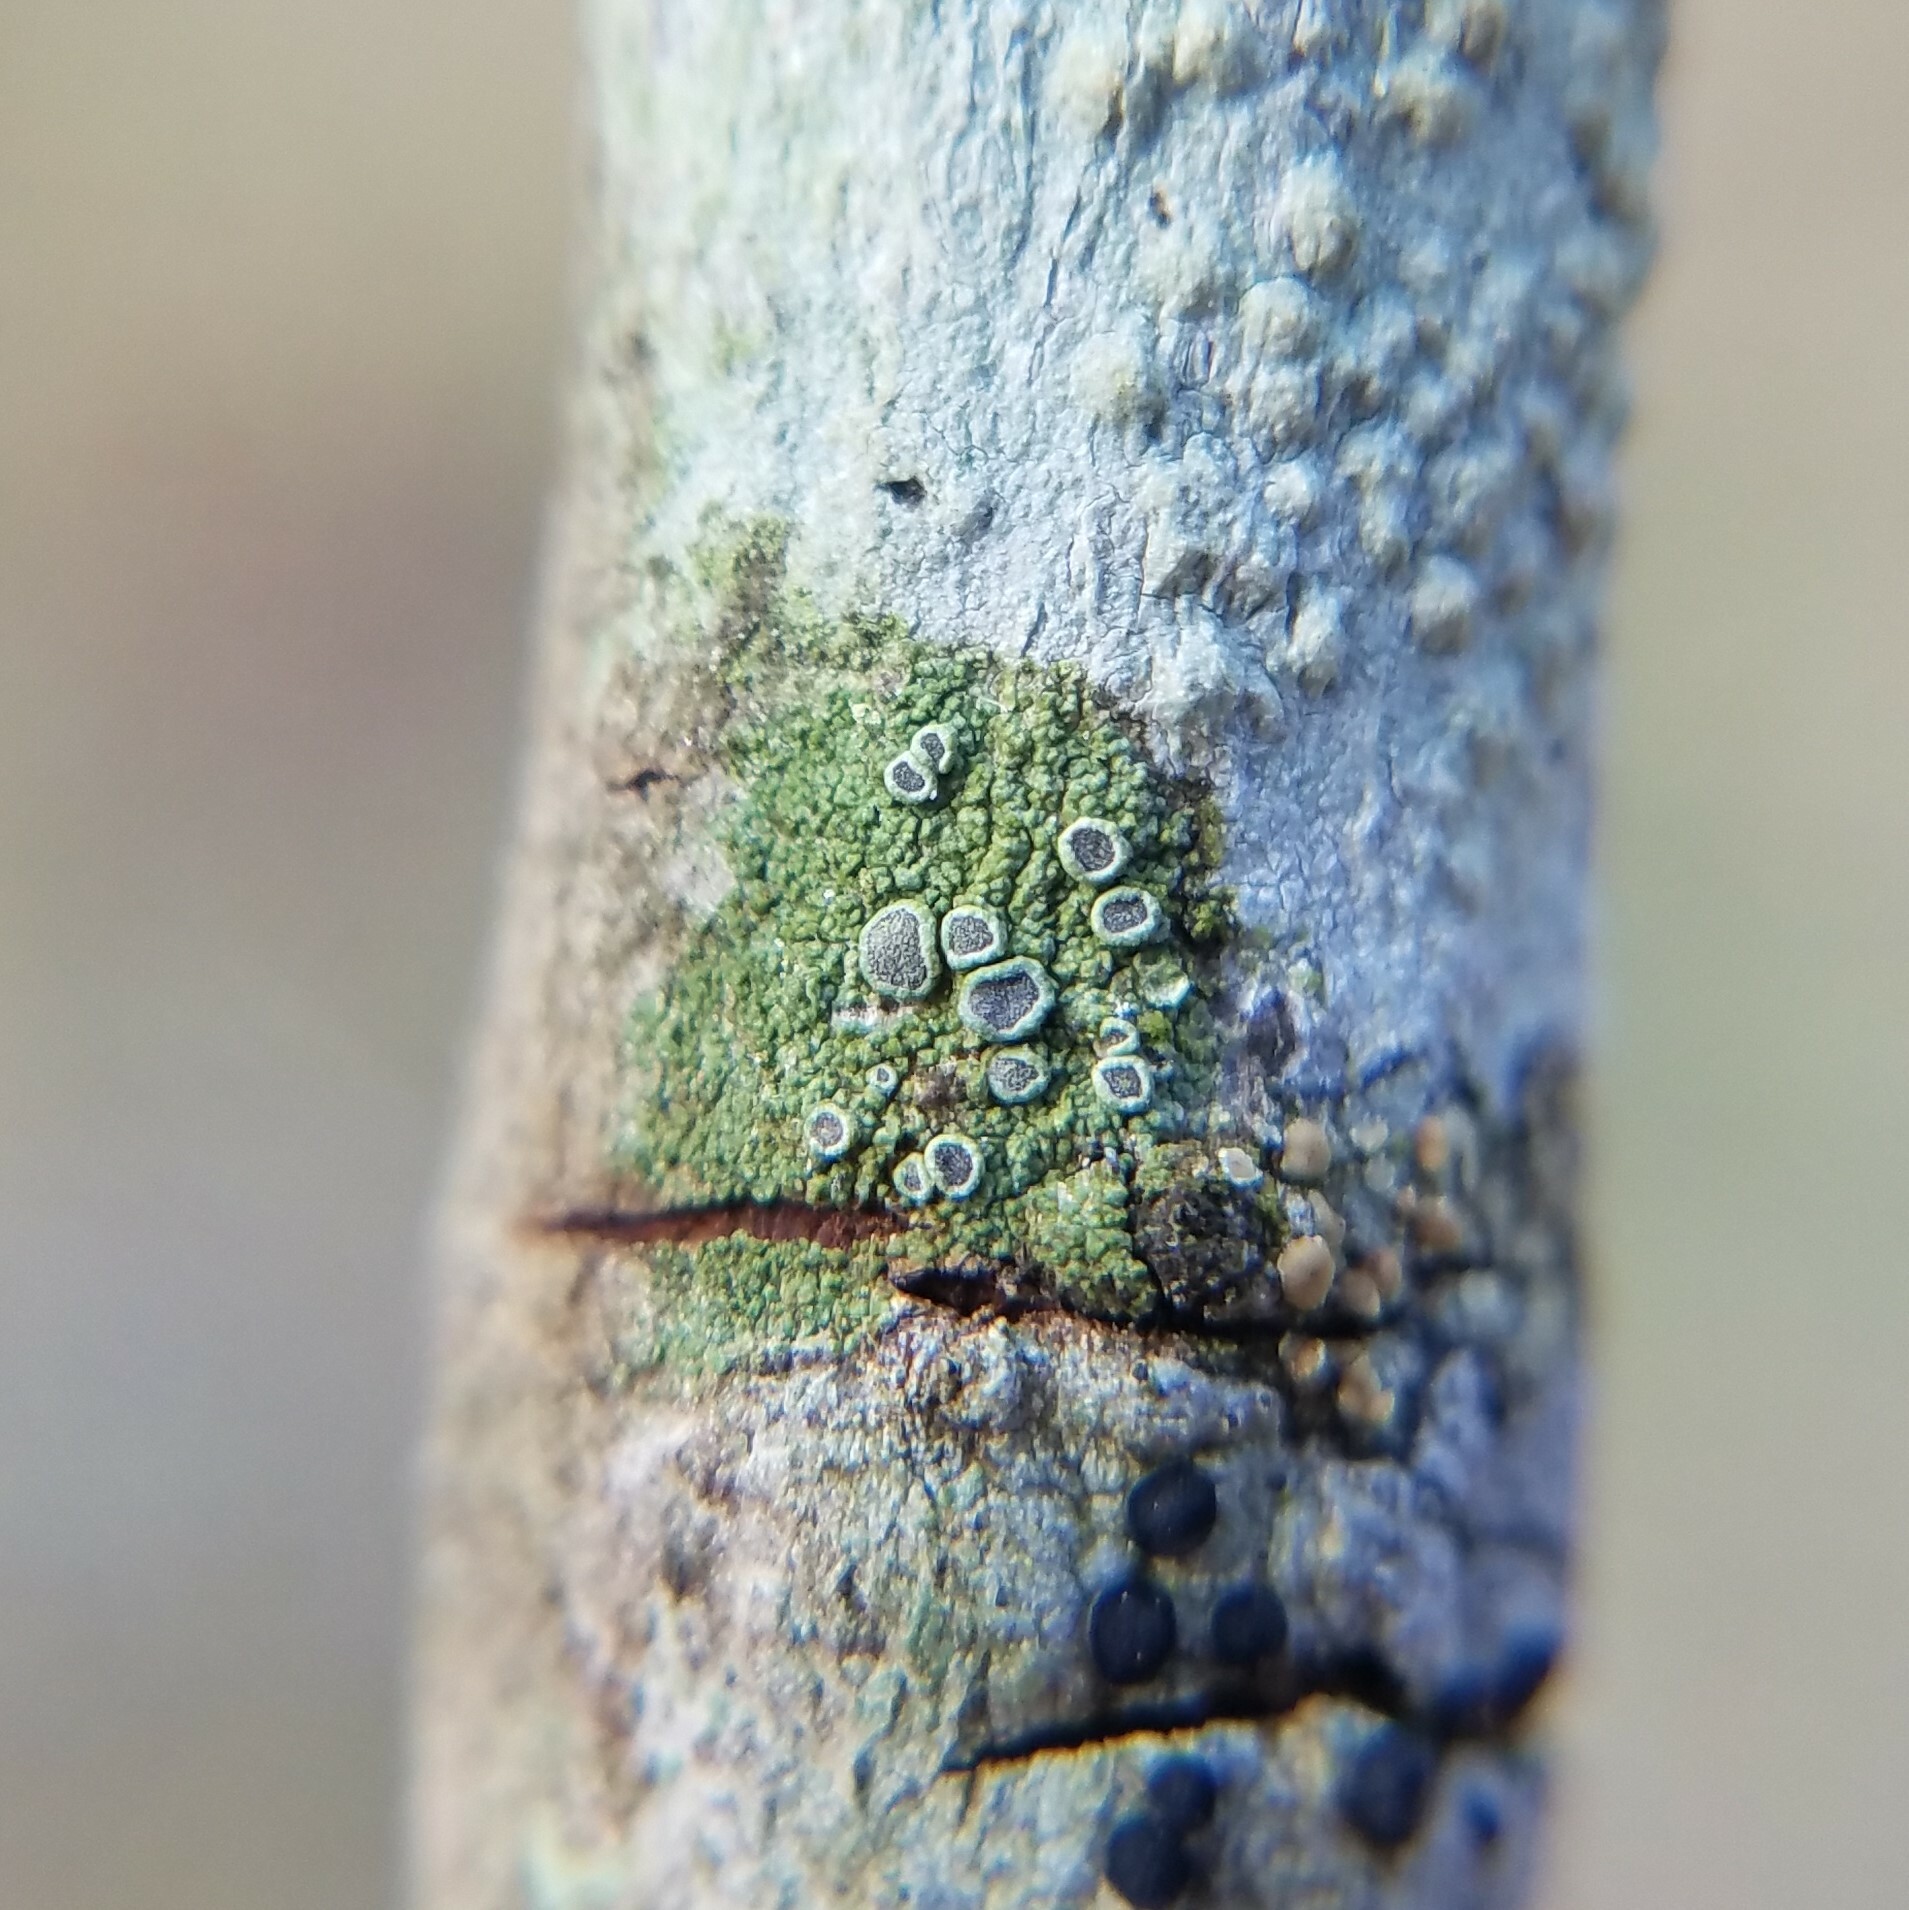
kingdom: Fungi
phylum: Ascomycota
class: Lecanoromycetes
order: Umbilicariales
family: Fuscideaceae
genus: Maronea
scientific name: Maronea polyphaea
